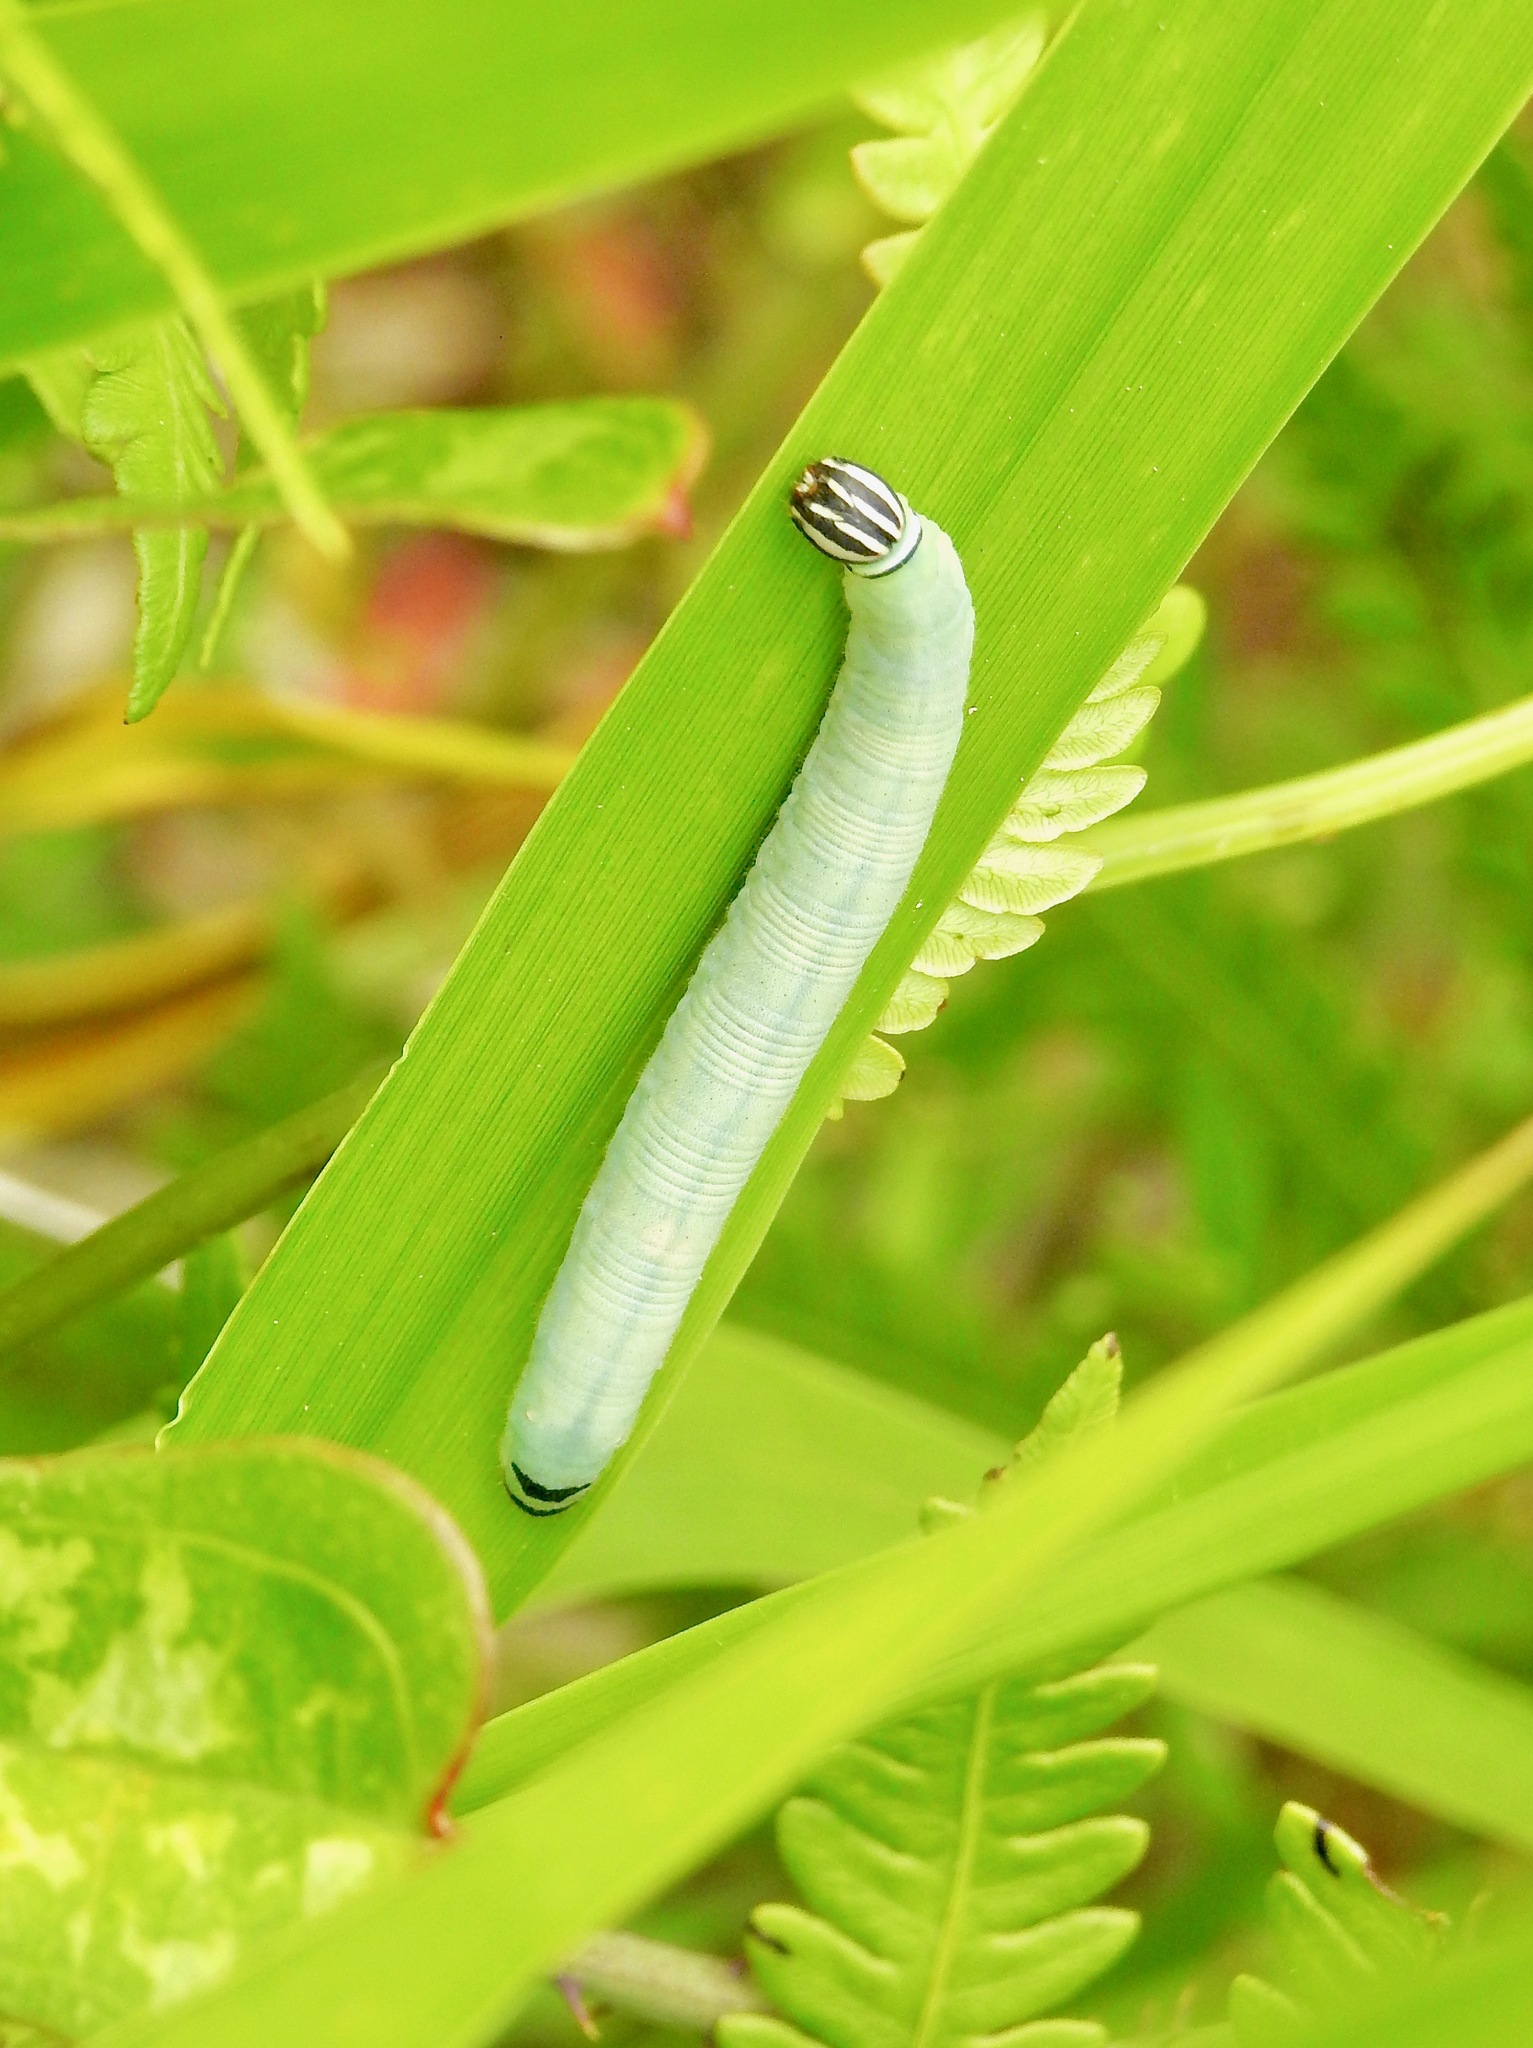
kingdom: Animalia
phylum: Arthropoda
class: Insecta
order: Lepidoptera
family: Hesperiidae
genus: Atrytone
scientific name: Atrytone delaware
